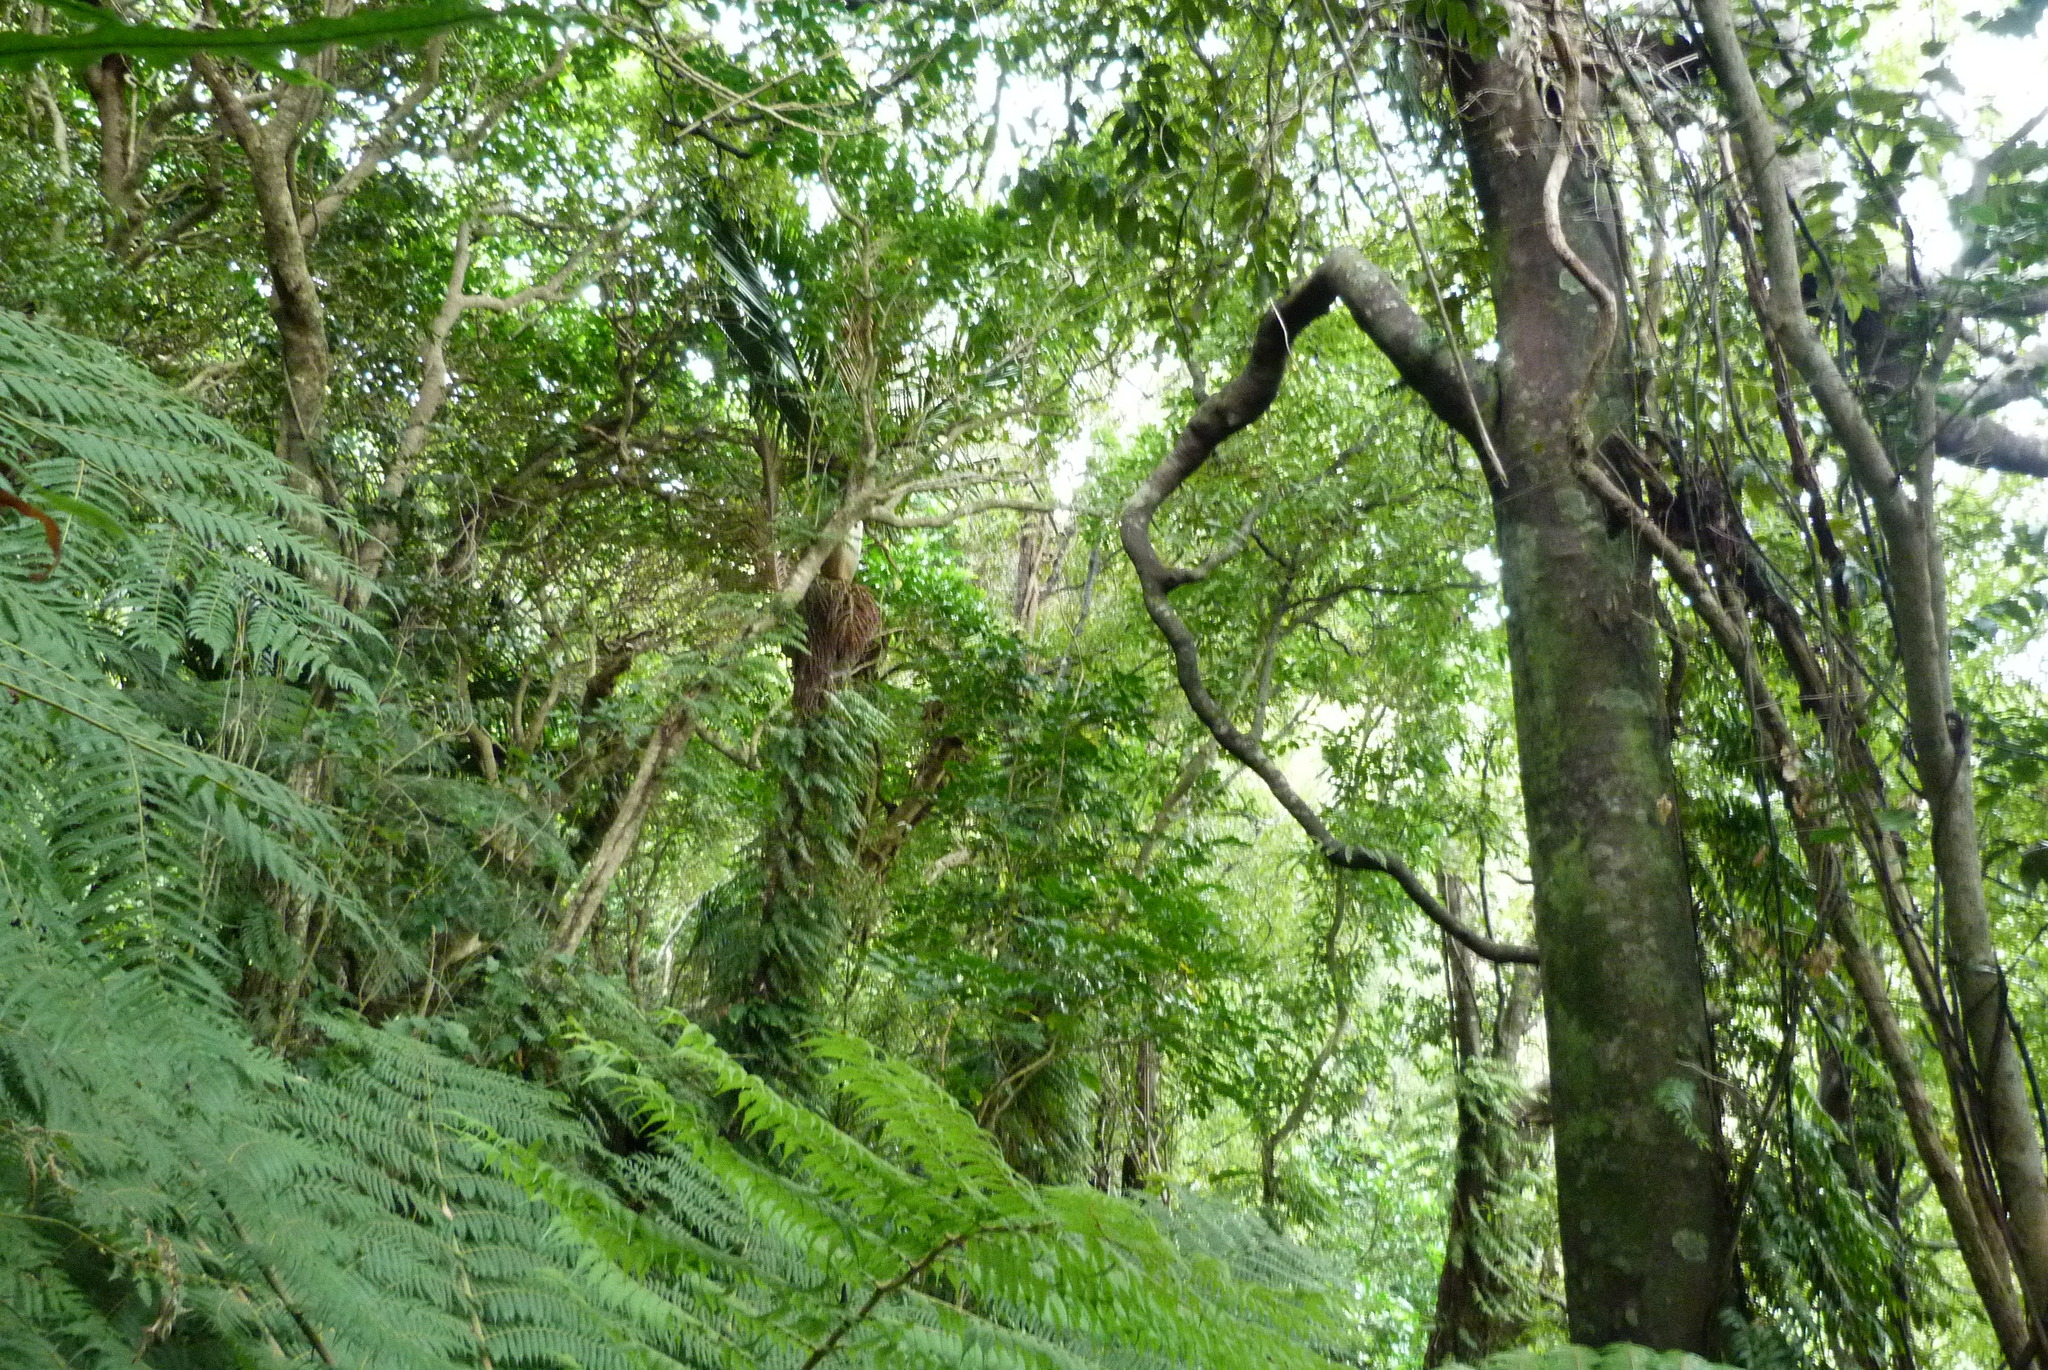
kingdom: Plantae
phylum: Tracheophyta
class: Liliopsida
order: Arecales
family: Arecaceae
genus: Rhopalostylis
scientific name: Rhopalostylis sapida
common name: Feather-duster palm
